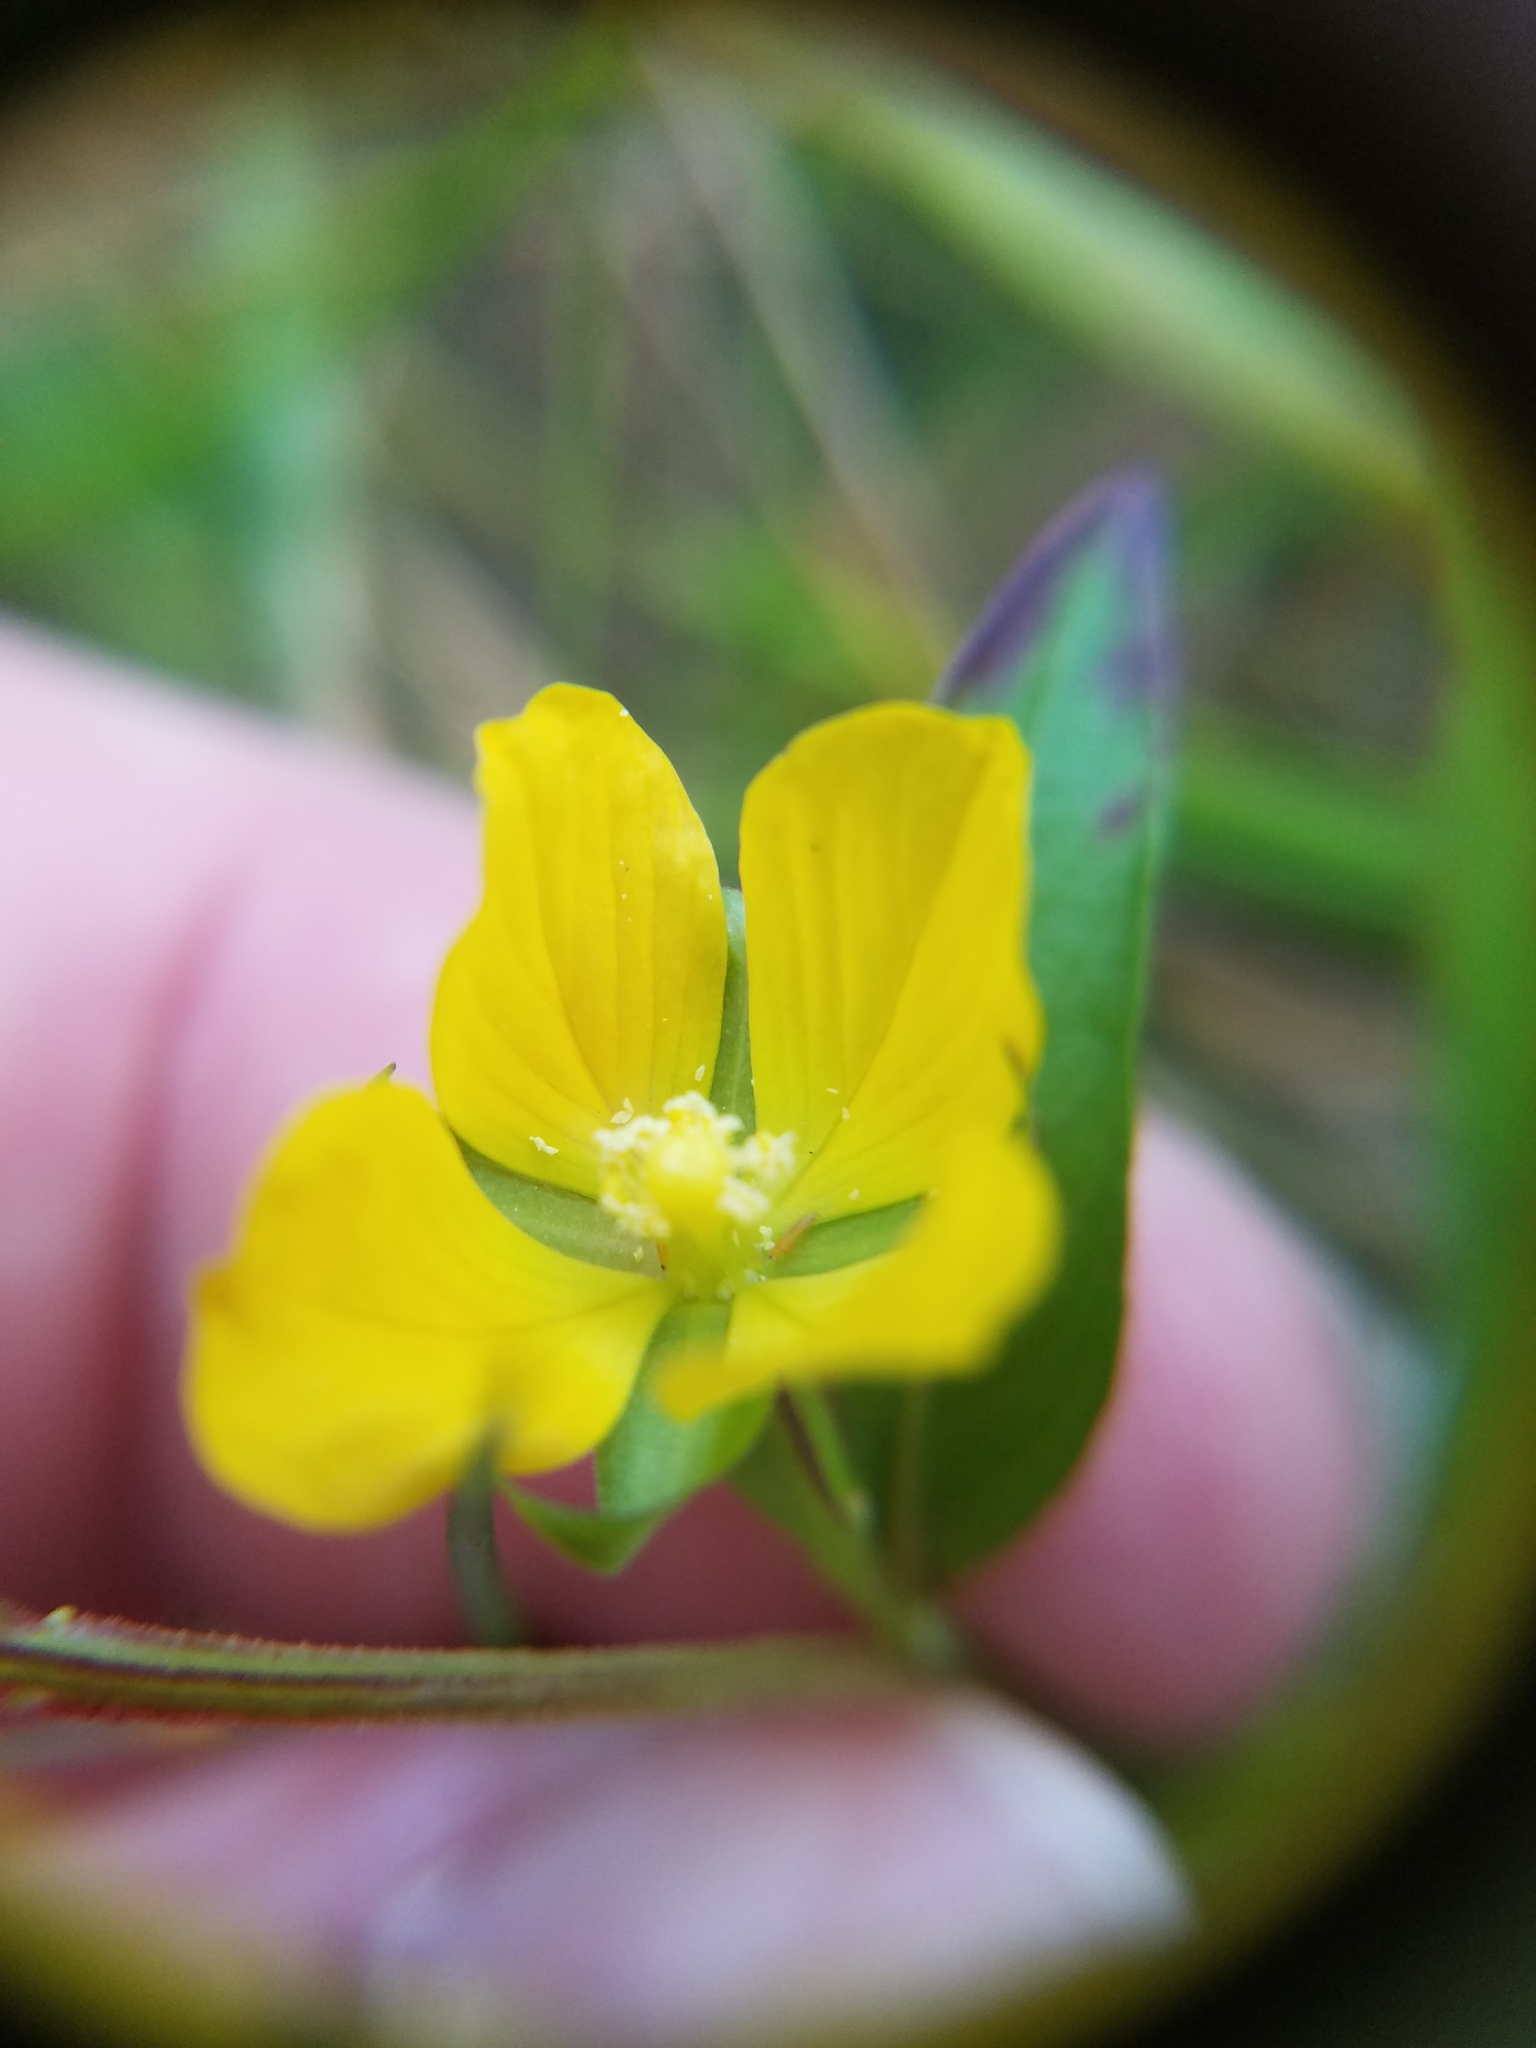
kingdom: Plantae
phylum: Tracheophyta
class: Magnoliopsida
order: Myrtales
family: Onagraceae
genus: Ludwigia
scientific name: Ludwigia decurrens
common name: Winged water-primrose
